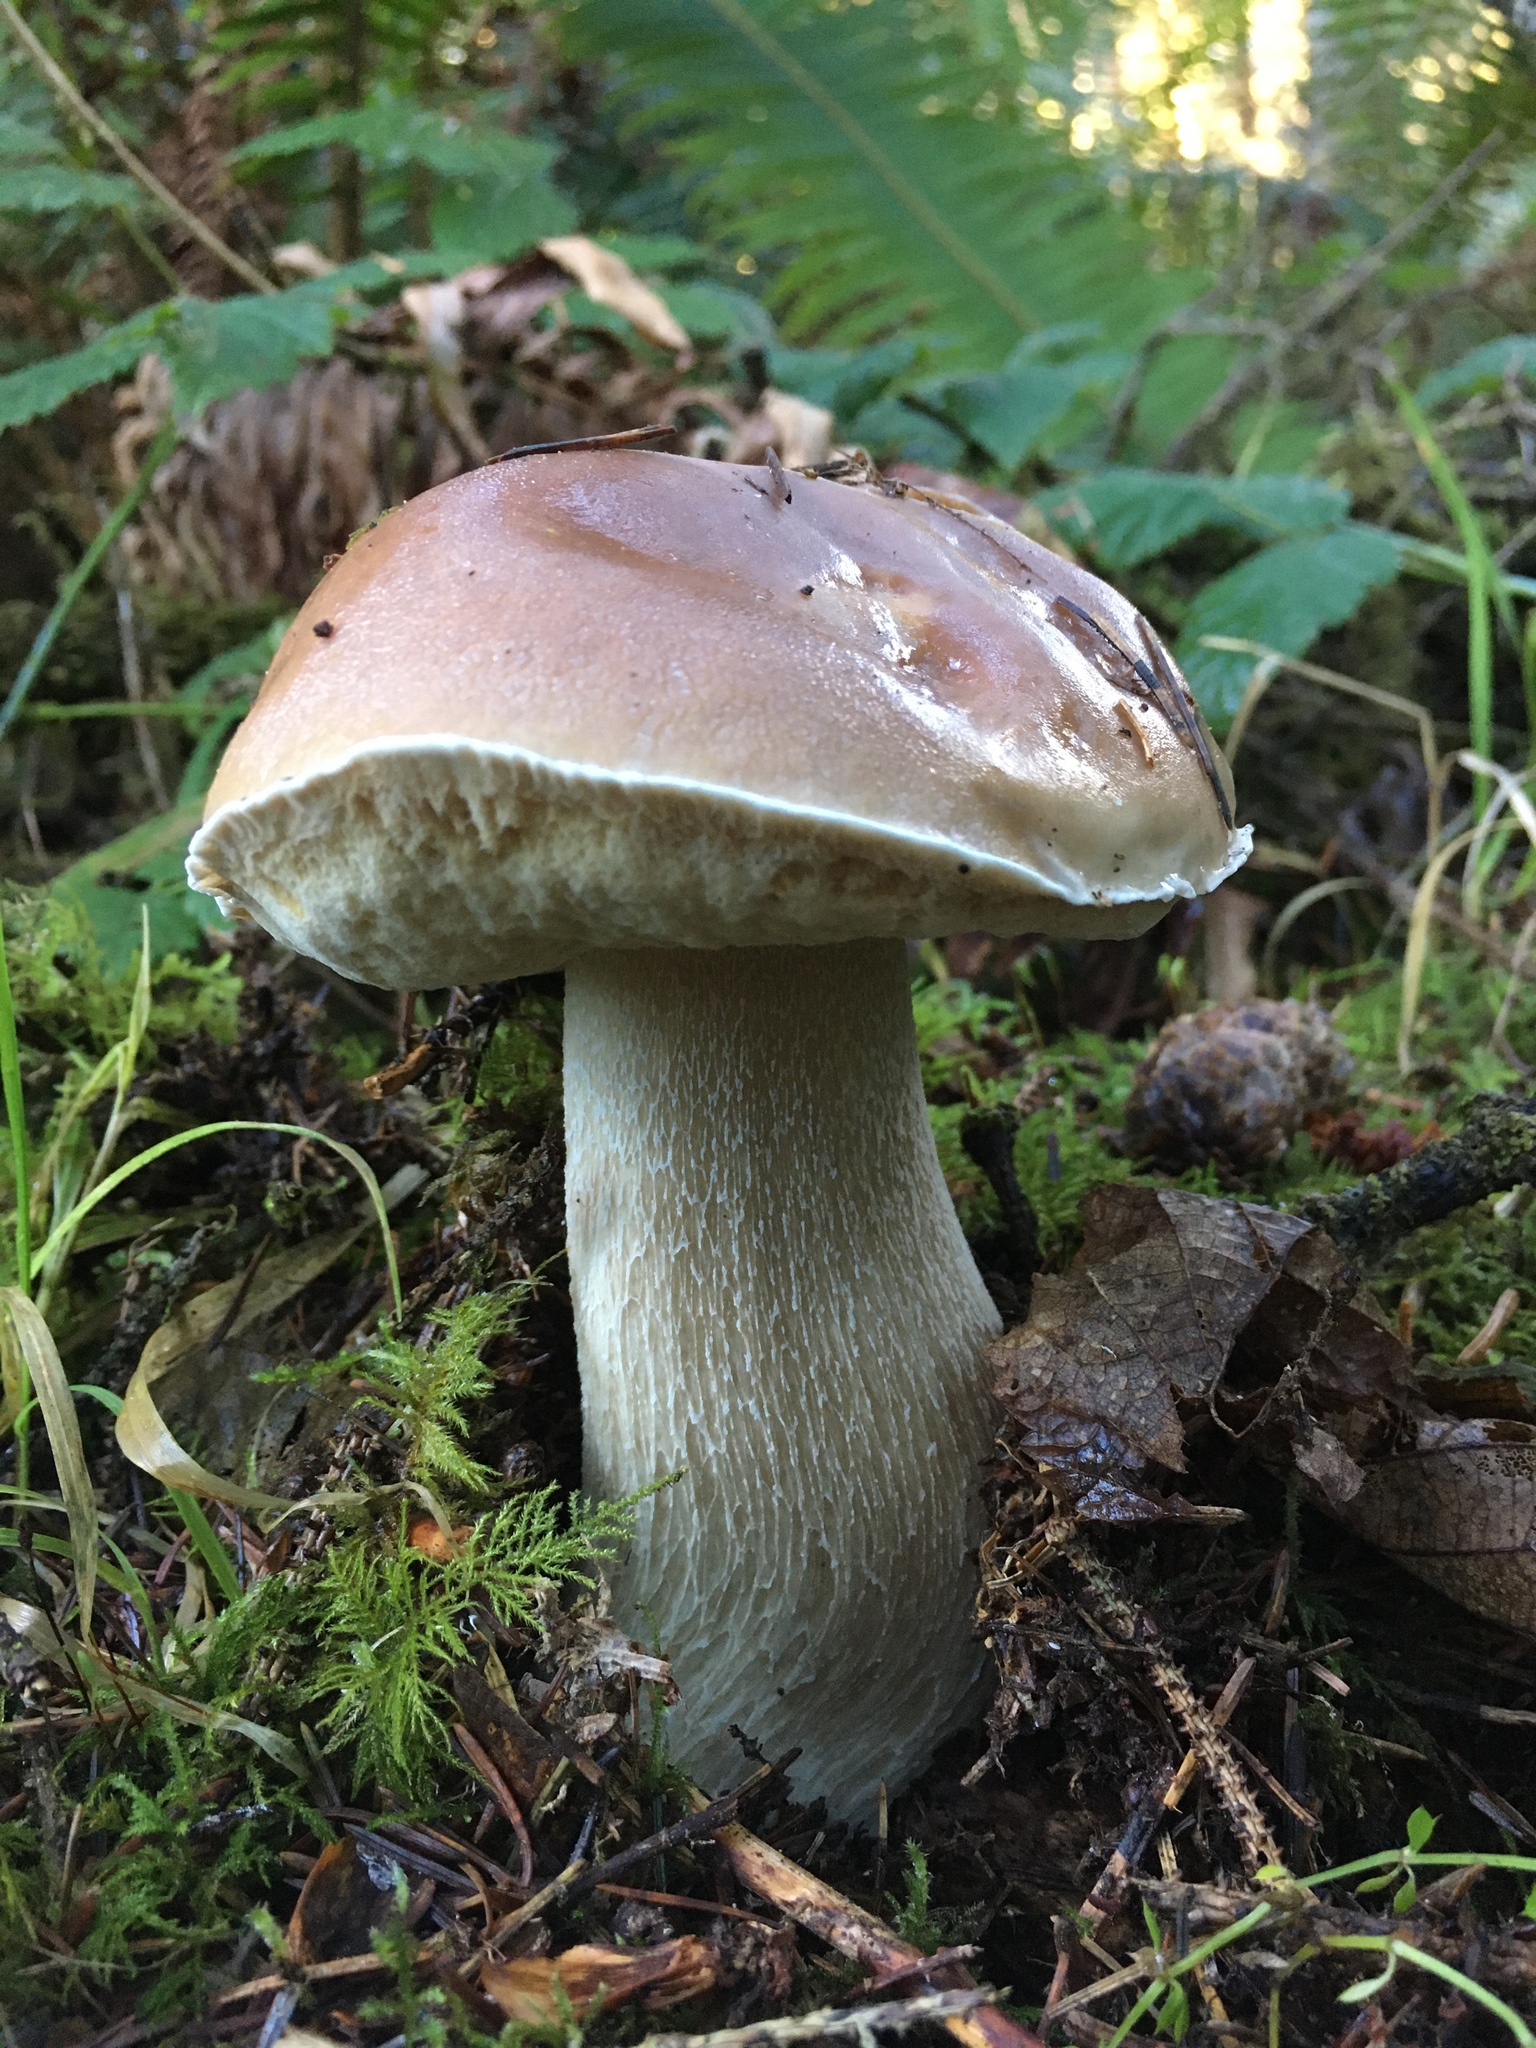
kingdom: Fungi
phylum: Basidiomycota
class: Agaricomycetes
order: Boletales
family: Boletaceae
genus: Boletus
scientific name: Boletus edulis
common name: Cep
